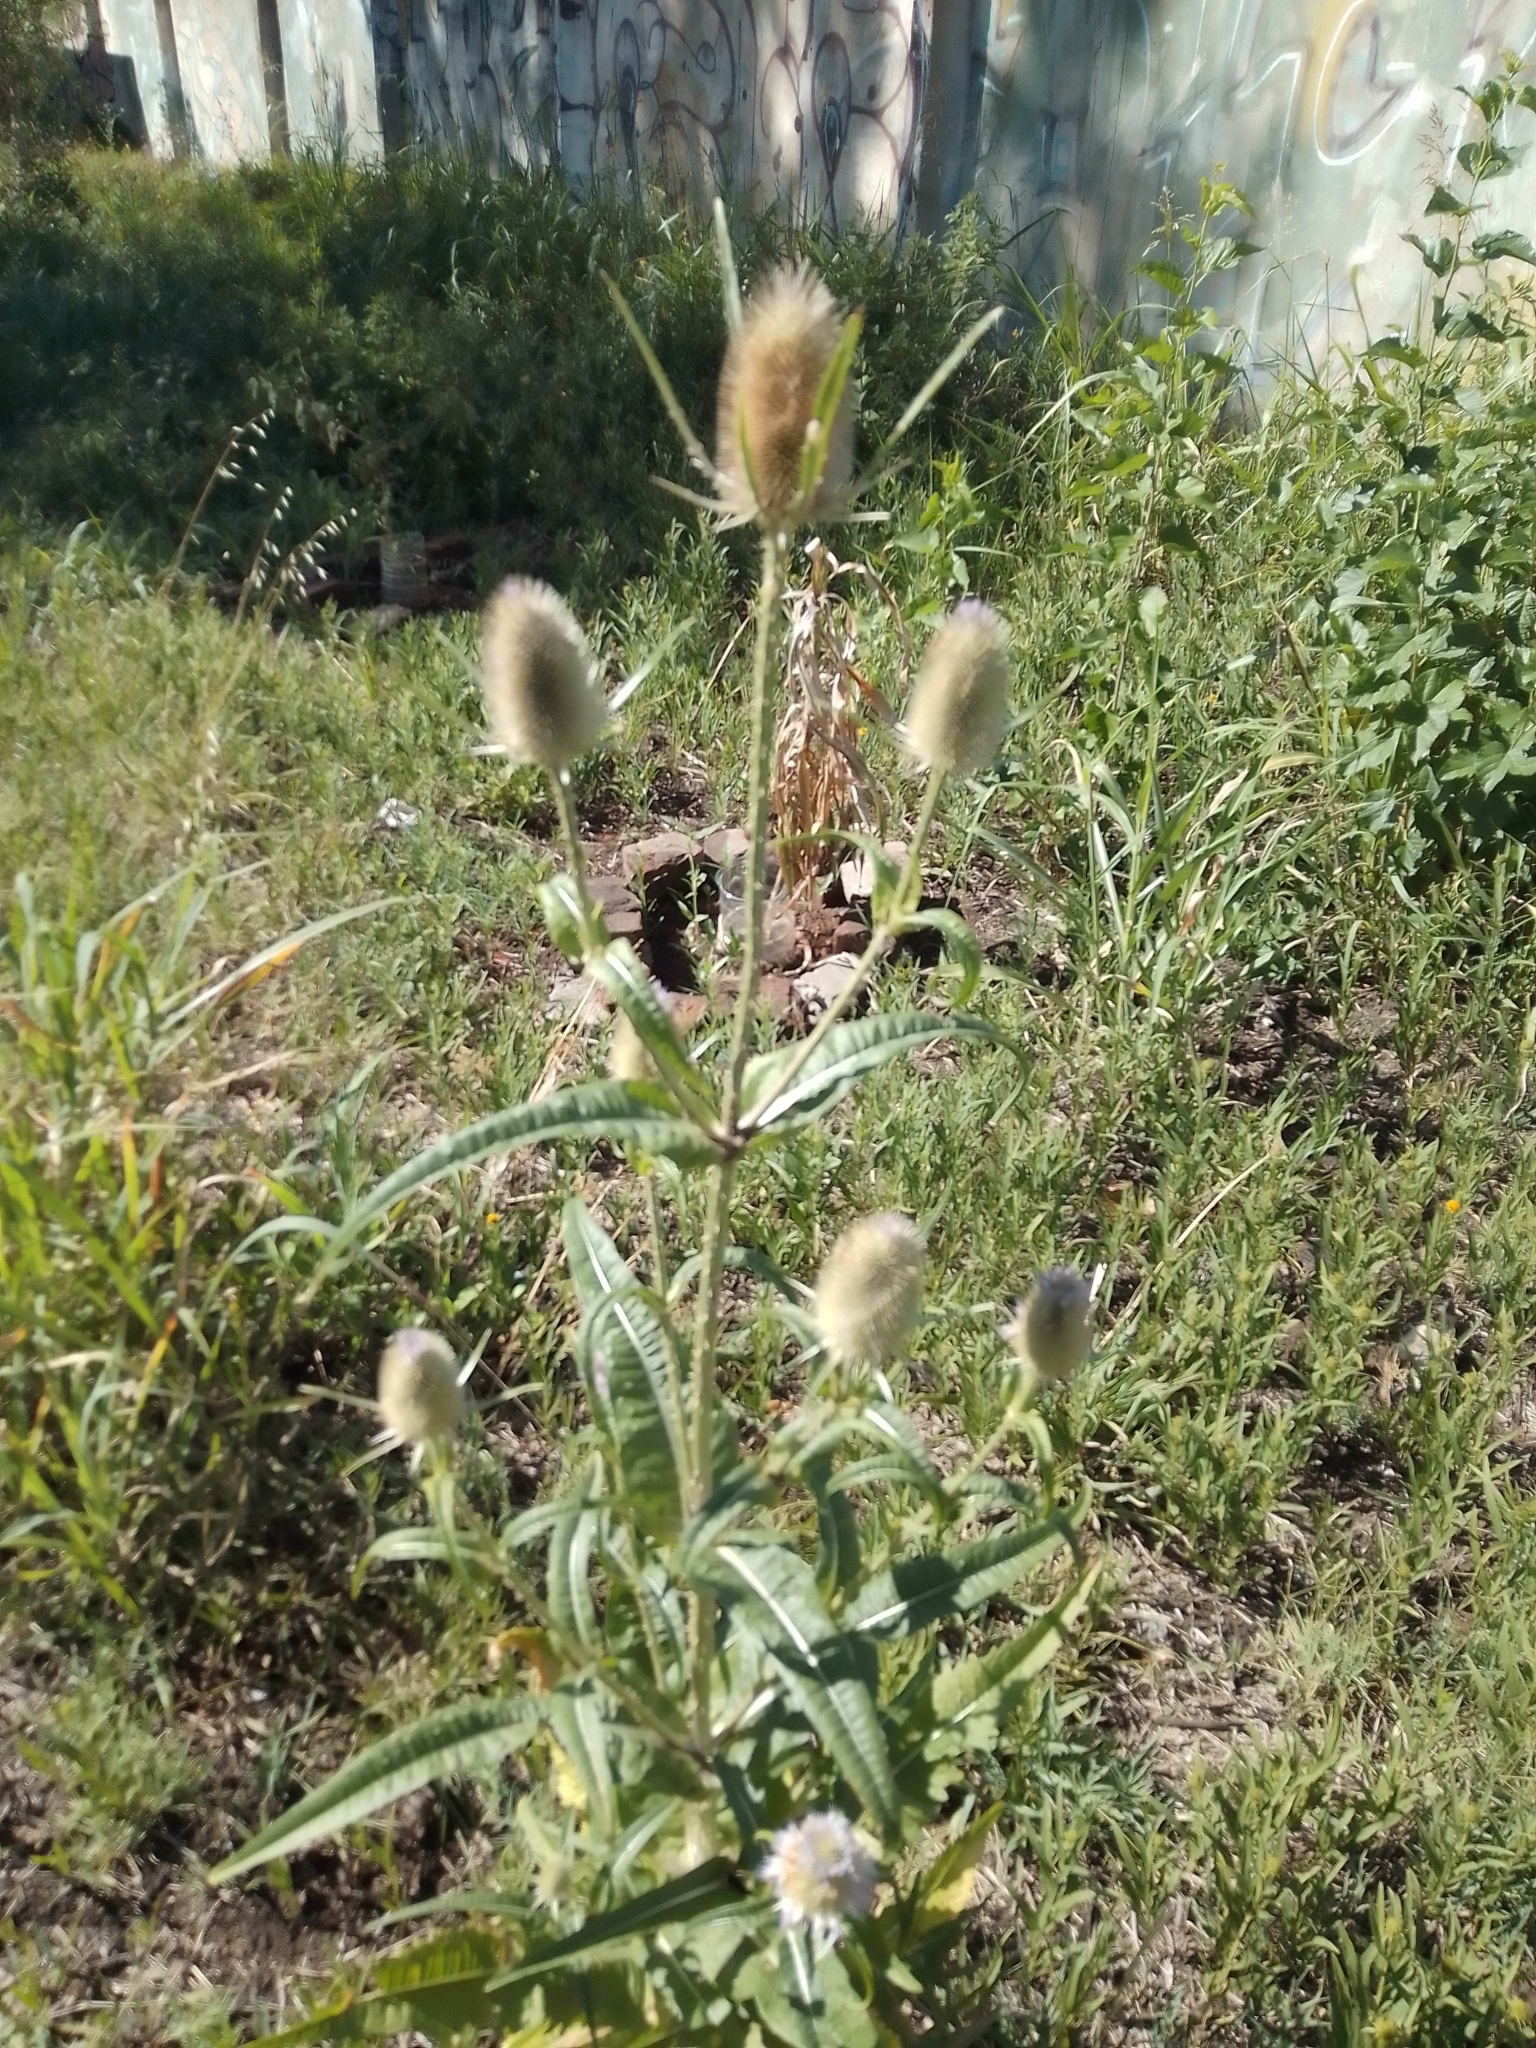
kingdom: Plantae
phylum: Tracheophyta
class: Magnoliopsida
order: Dipsacales
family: Caprifoliaceae
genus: Dipsacus
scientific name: Dipsacus fullonum
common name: Teasel
